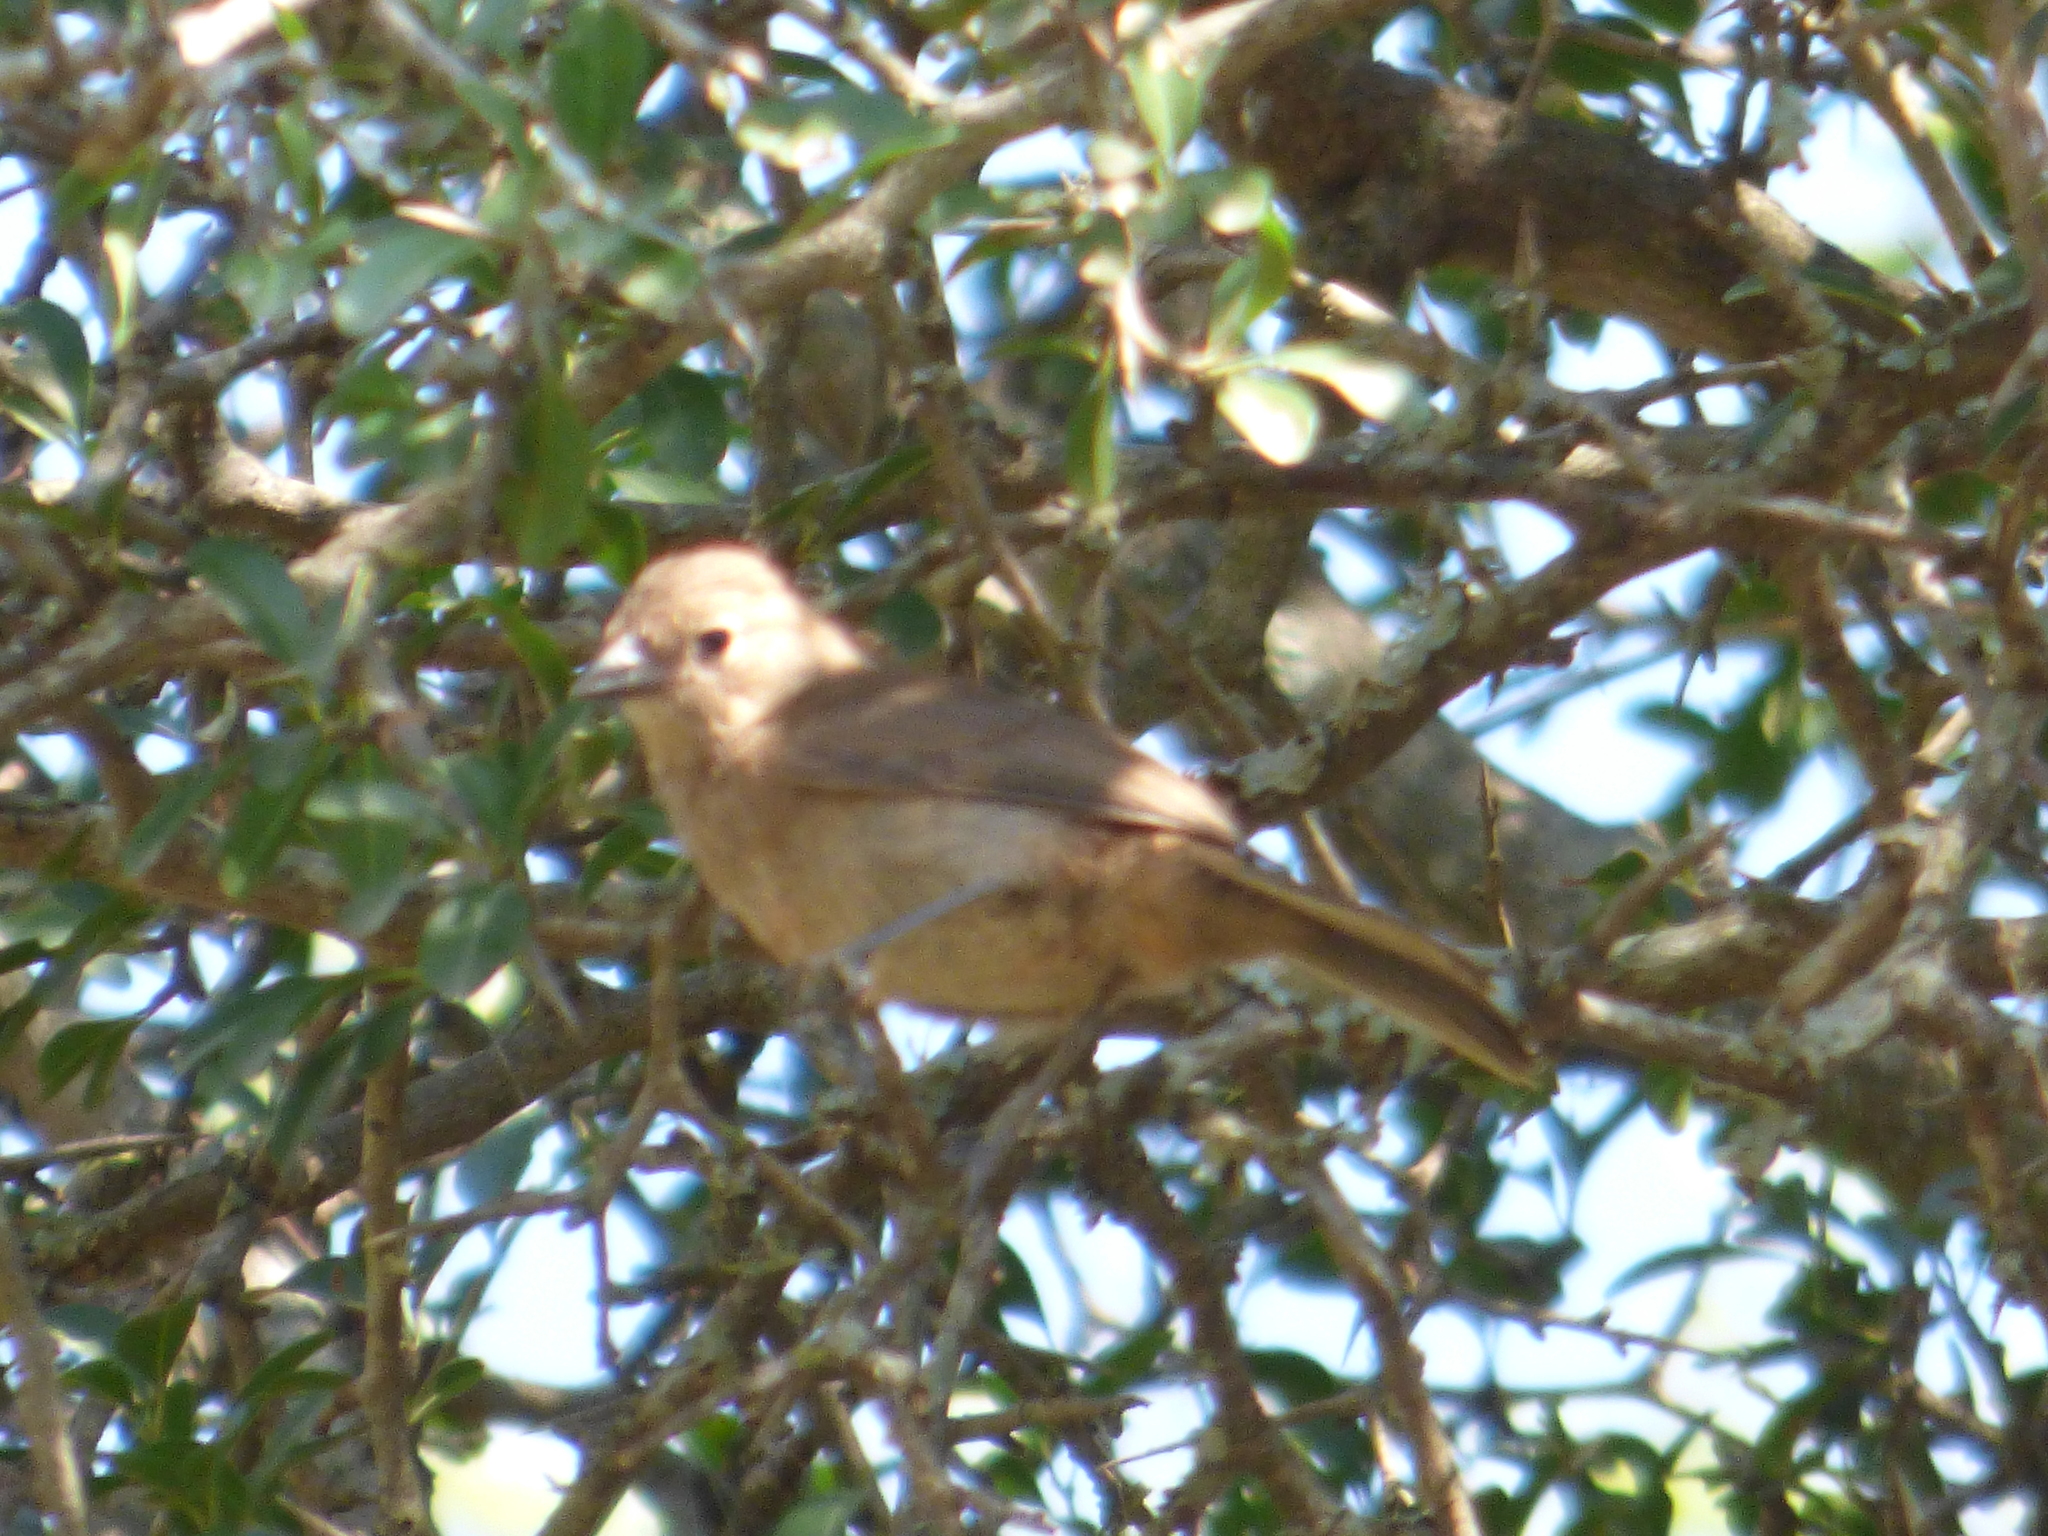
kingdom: Animalia
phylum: Chordata
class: Aves
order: Passeriformes
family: Thraupidae
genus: Coryphospingus
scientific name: Coryphospingus cucullatus
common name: Red pileated finch
